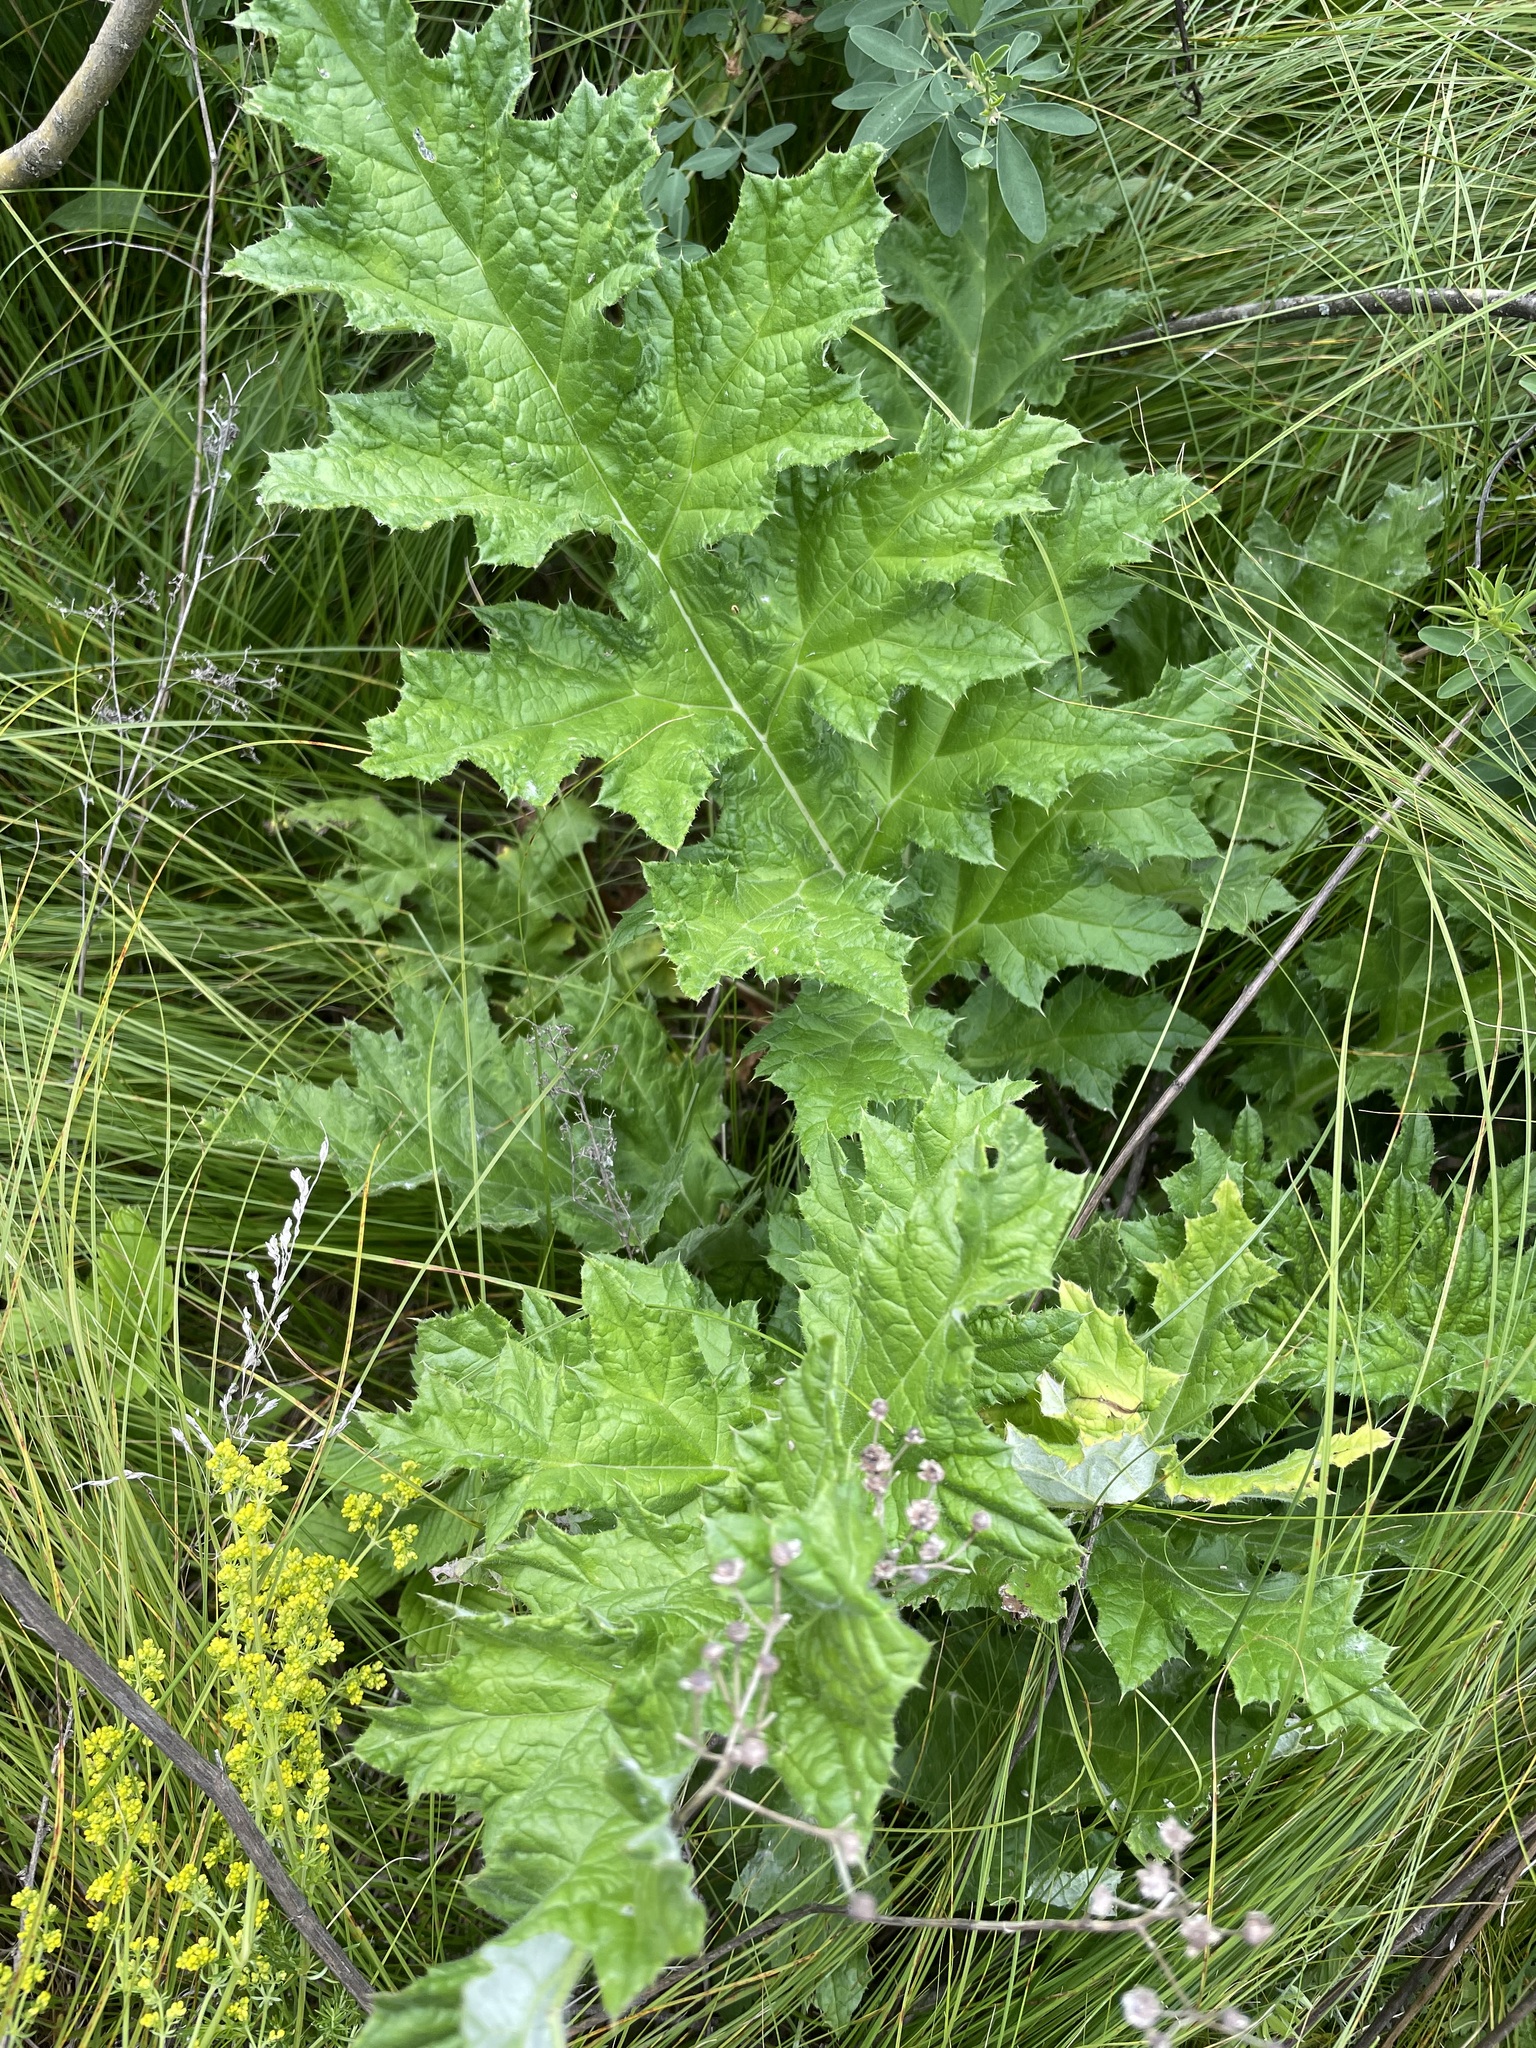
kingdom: Plantae
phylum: Tracheophyta
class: Magnoliopsida
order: Asterales
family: Asteraceae
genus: Echinops
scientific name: Echinops sphaerocephalus
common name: Glandular globe-thistle
